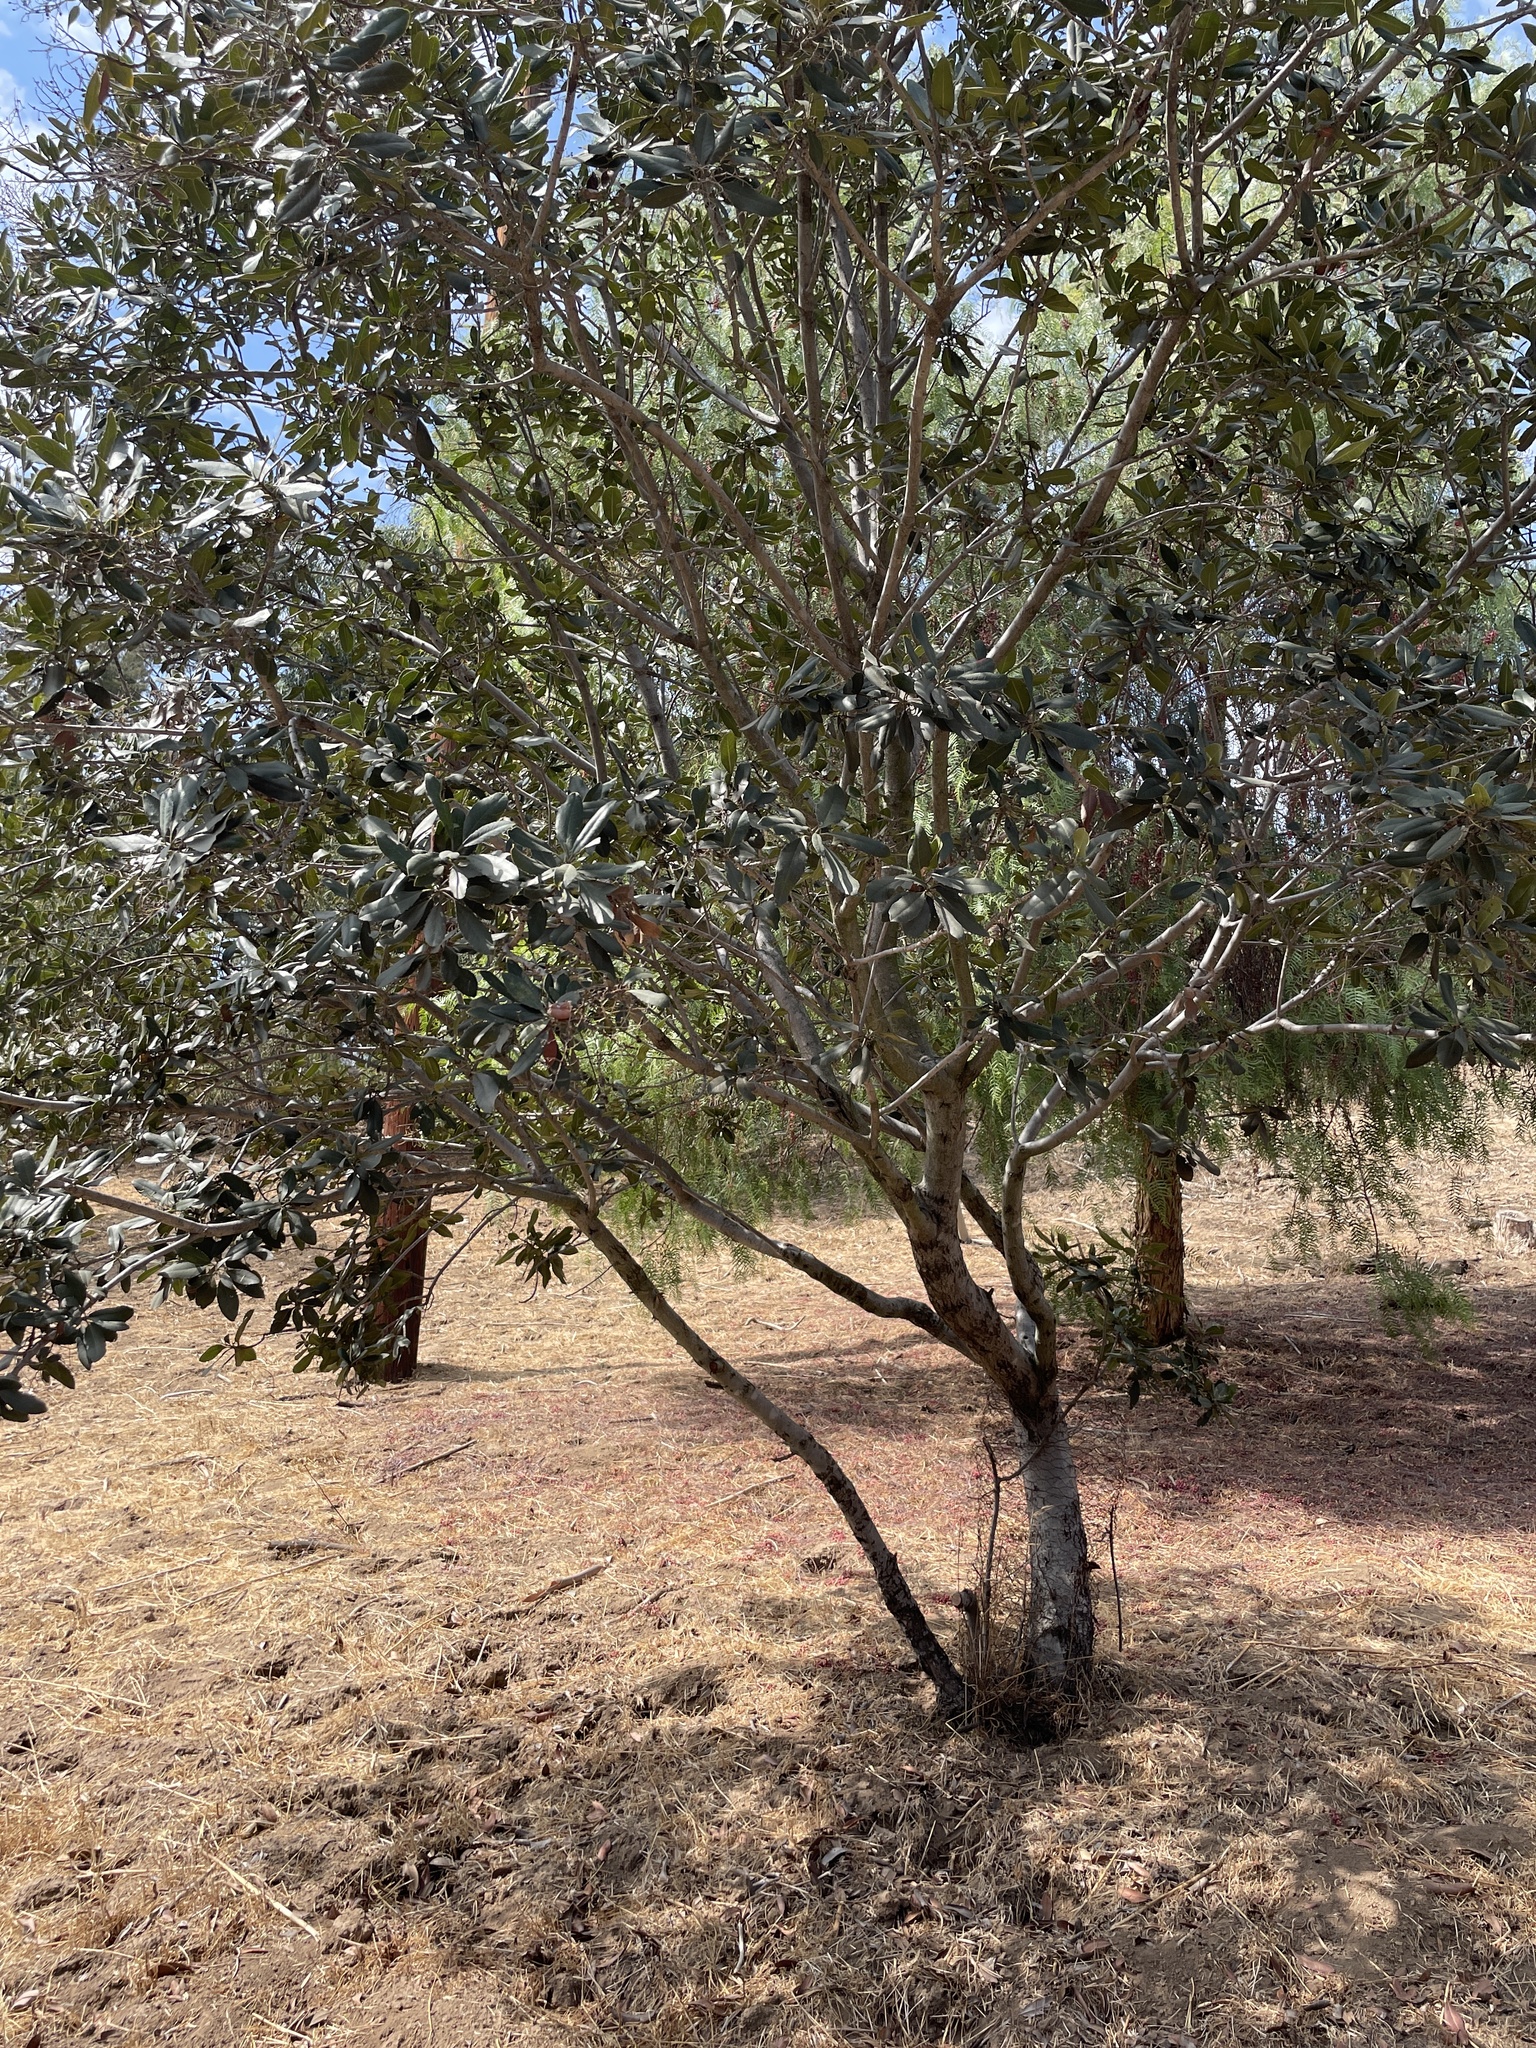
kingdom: Plantae
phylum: Tracheophyta
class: Magnoliopsida
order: Rosales
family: Rosaceae
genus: Heteromeles
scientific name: Heteromeles arbutifolia
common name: California-holly
